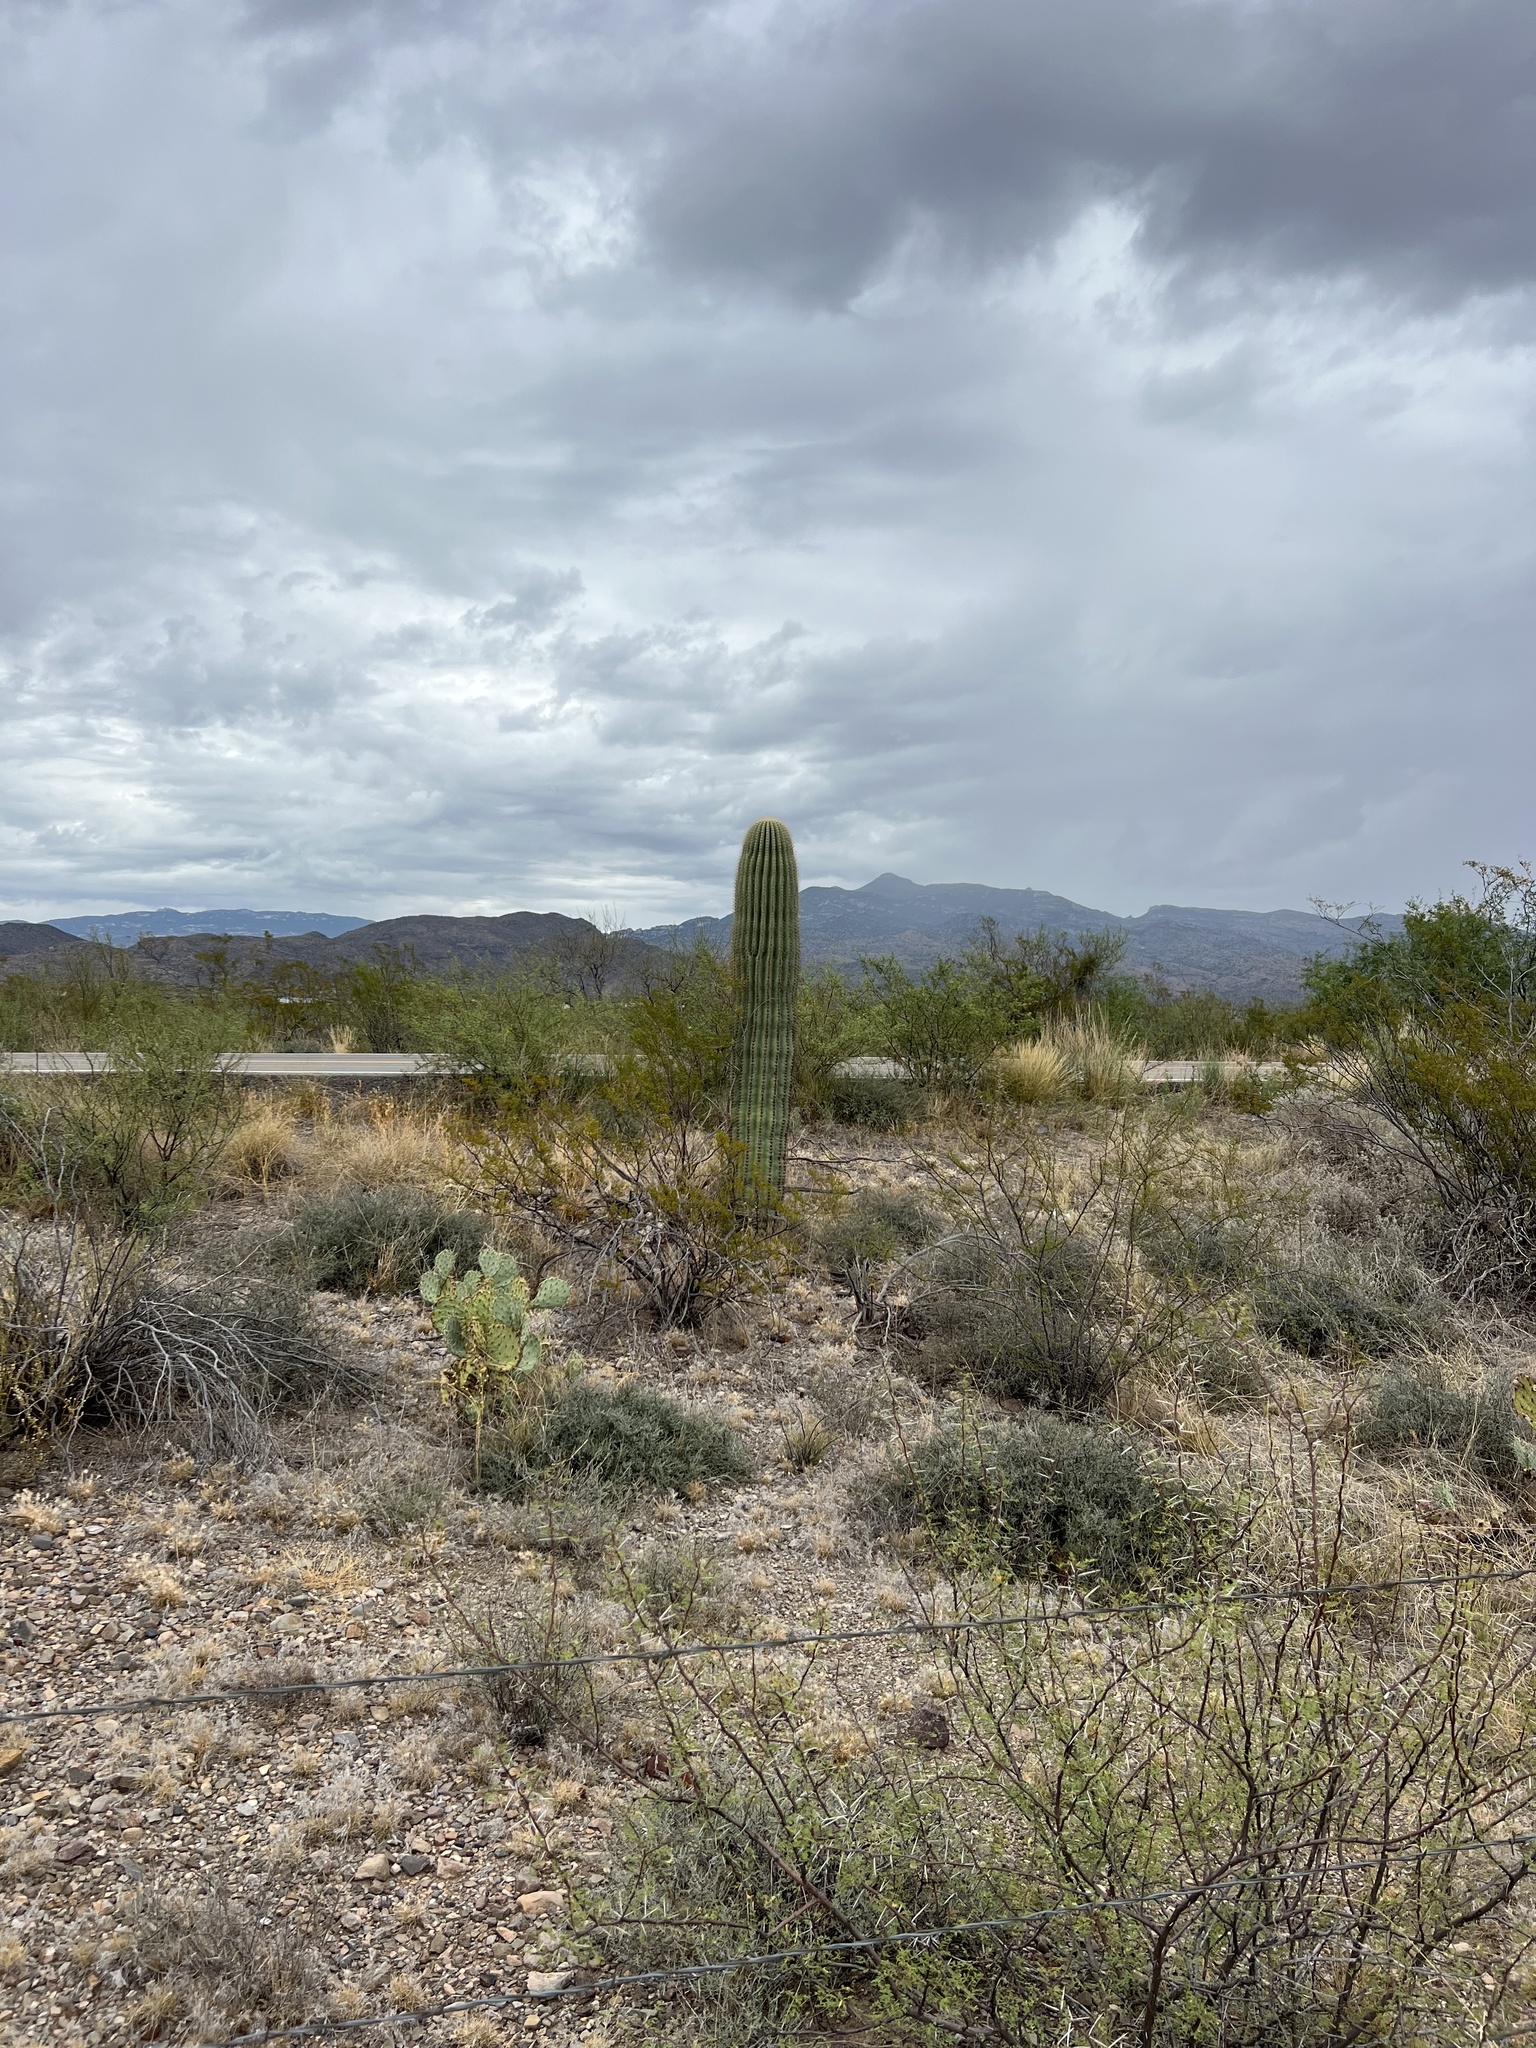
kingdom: Plantae
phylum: Tracheophyta
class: Magnoliopsida
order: Caryophyllales
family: Cactaceae
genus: Carnegiea
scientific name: Carnegiea gigantea
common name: Saguaro
